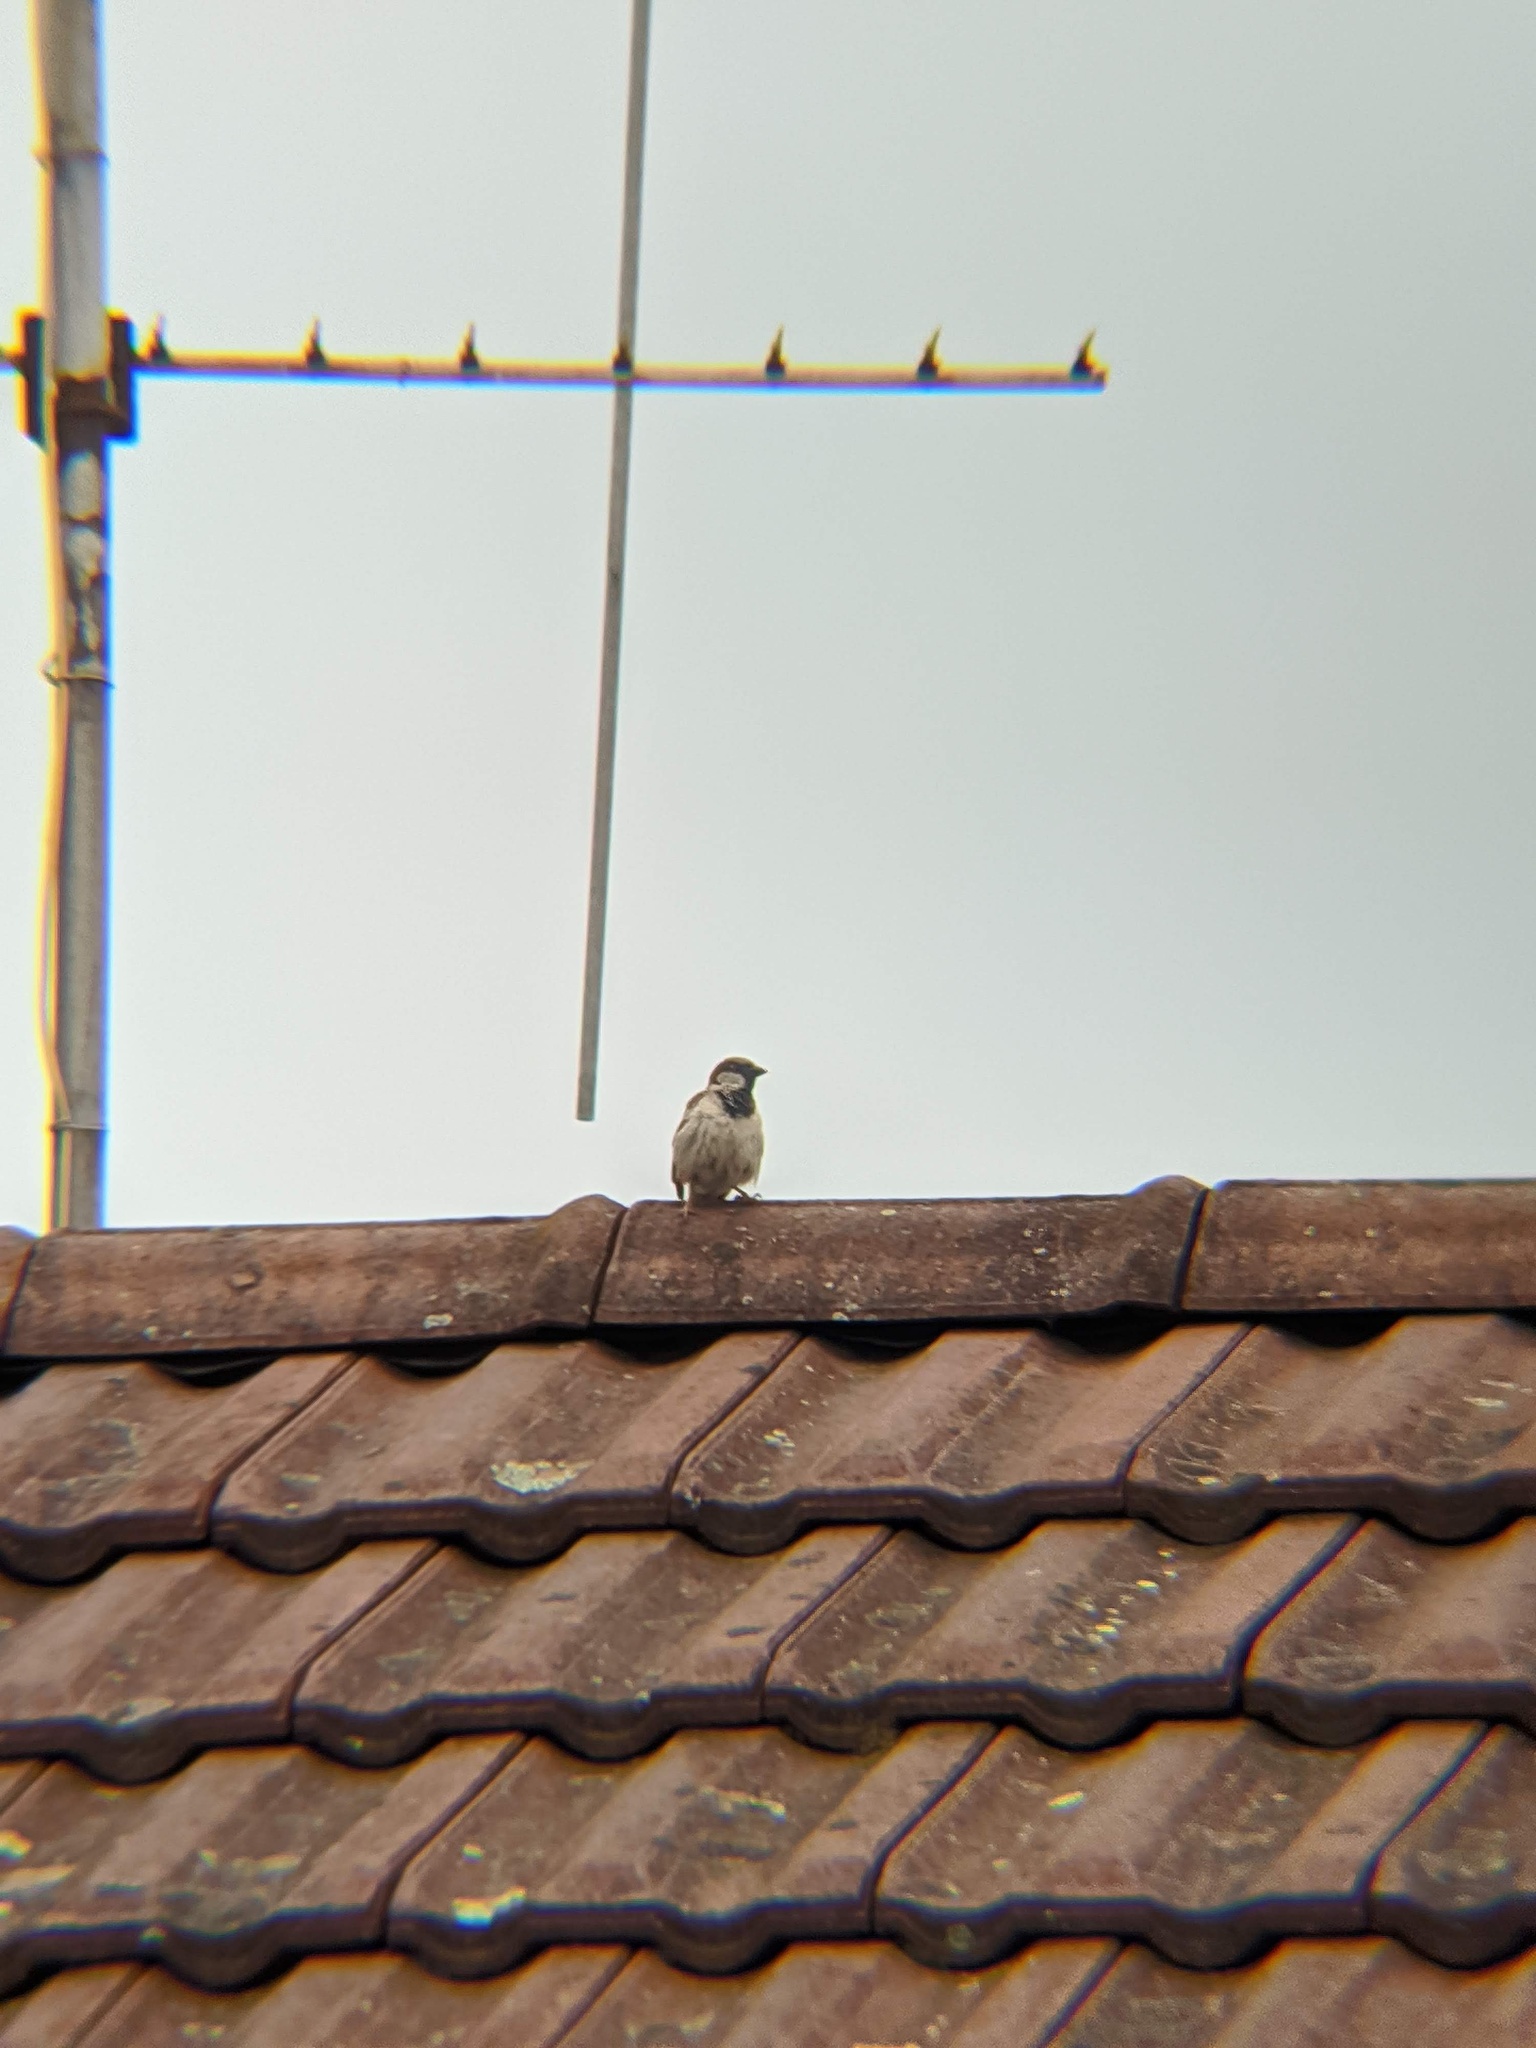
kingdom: Animalia
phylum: Chordata
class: Aves
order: Passeriformes
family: Passeridae
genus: Passer
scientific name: Passer domesticus
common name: House sparrow
